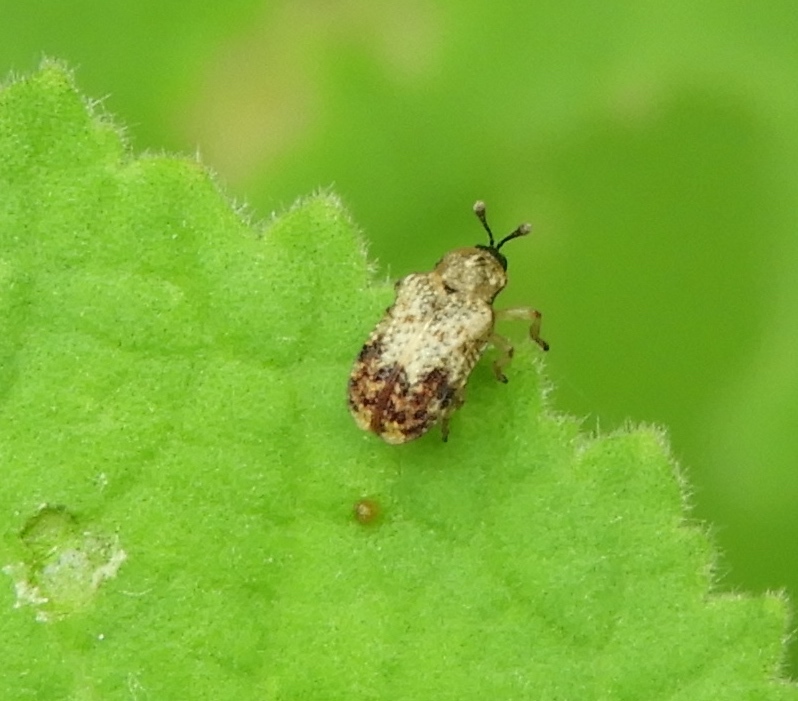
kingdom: Animalia
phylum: Arthropoda
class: Insecta
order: Coleoptera
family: Chrysomelidae
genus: Brachycoryna
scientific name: Brachycoryna pumila
